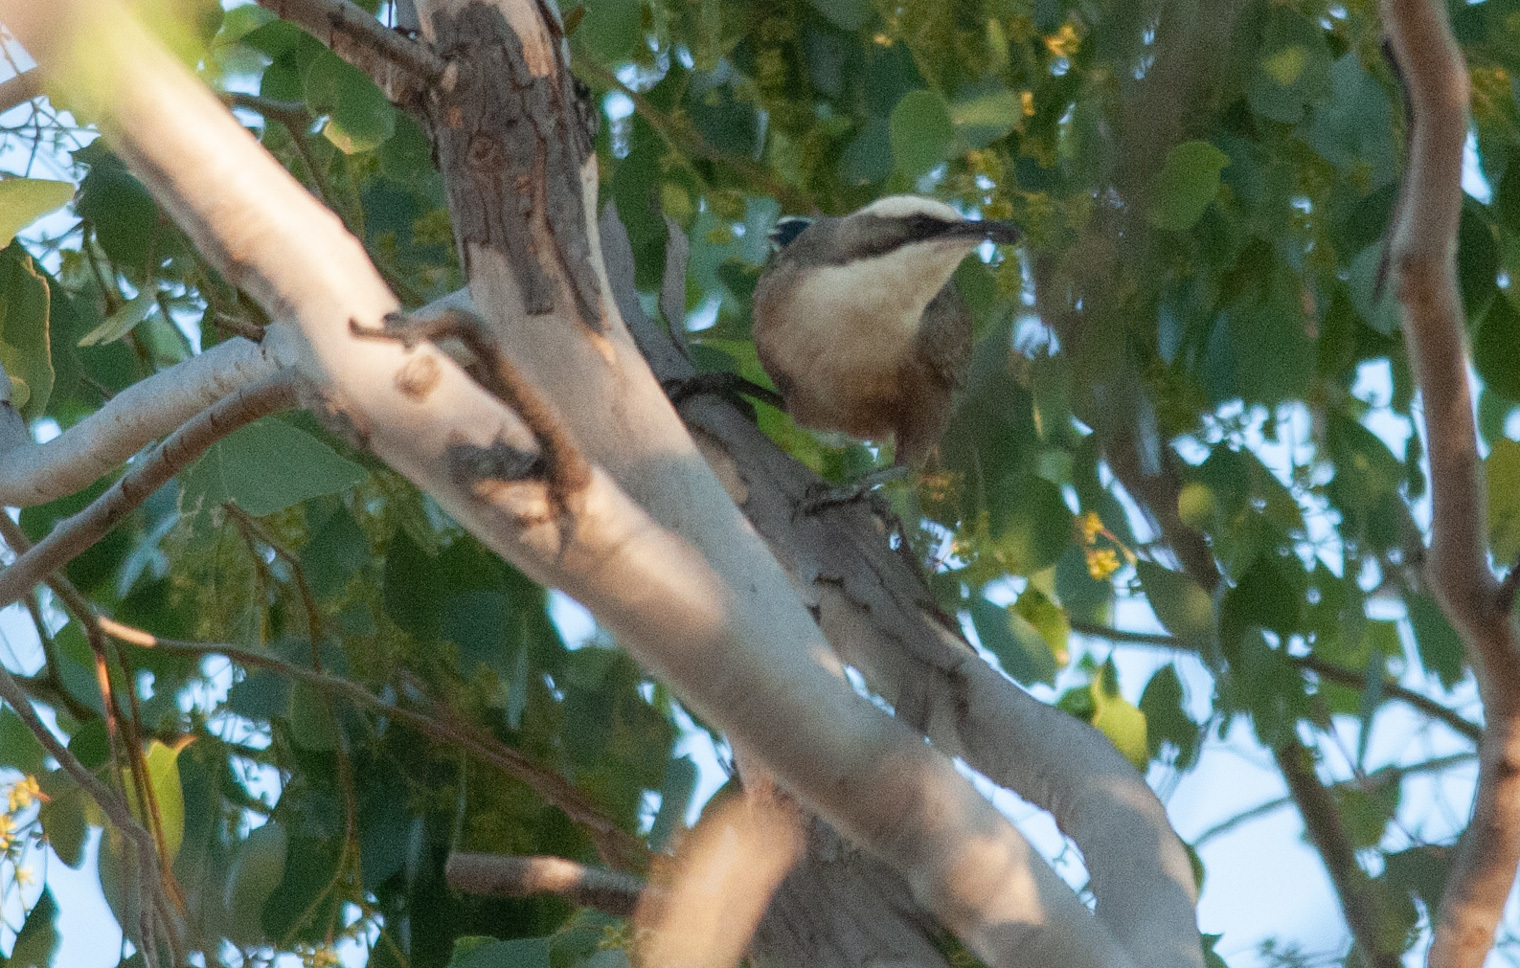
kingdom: Animalia
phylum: Chordata
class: Aves
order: Passeriformes
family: Pomatostomidae
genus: Pomatostomus
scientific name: Pomatostomus temporalis
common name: Grey-crowned babbler
